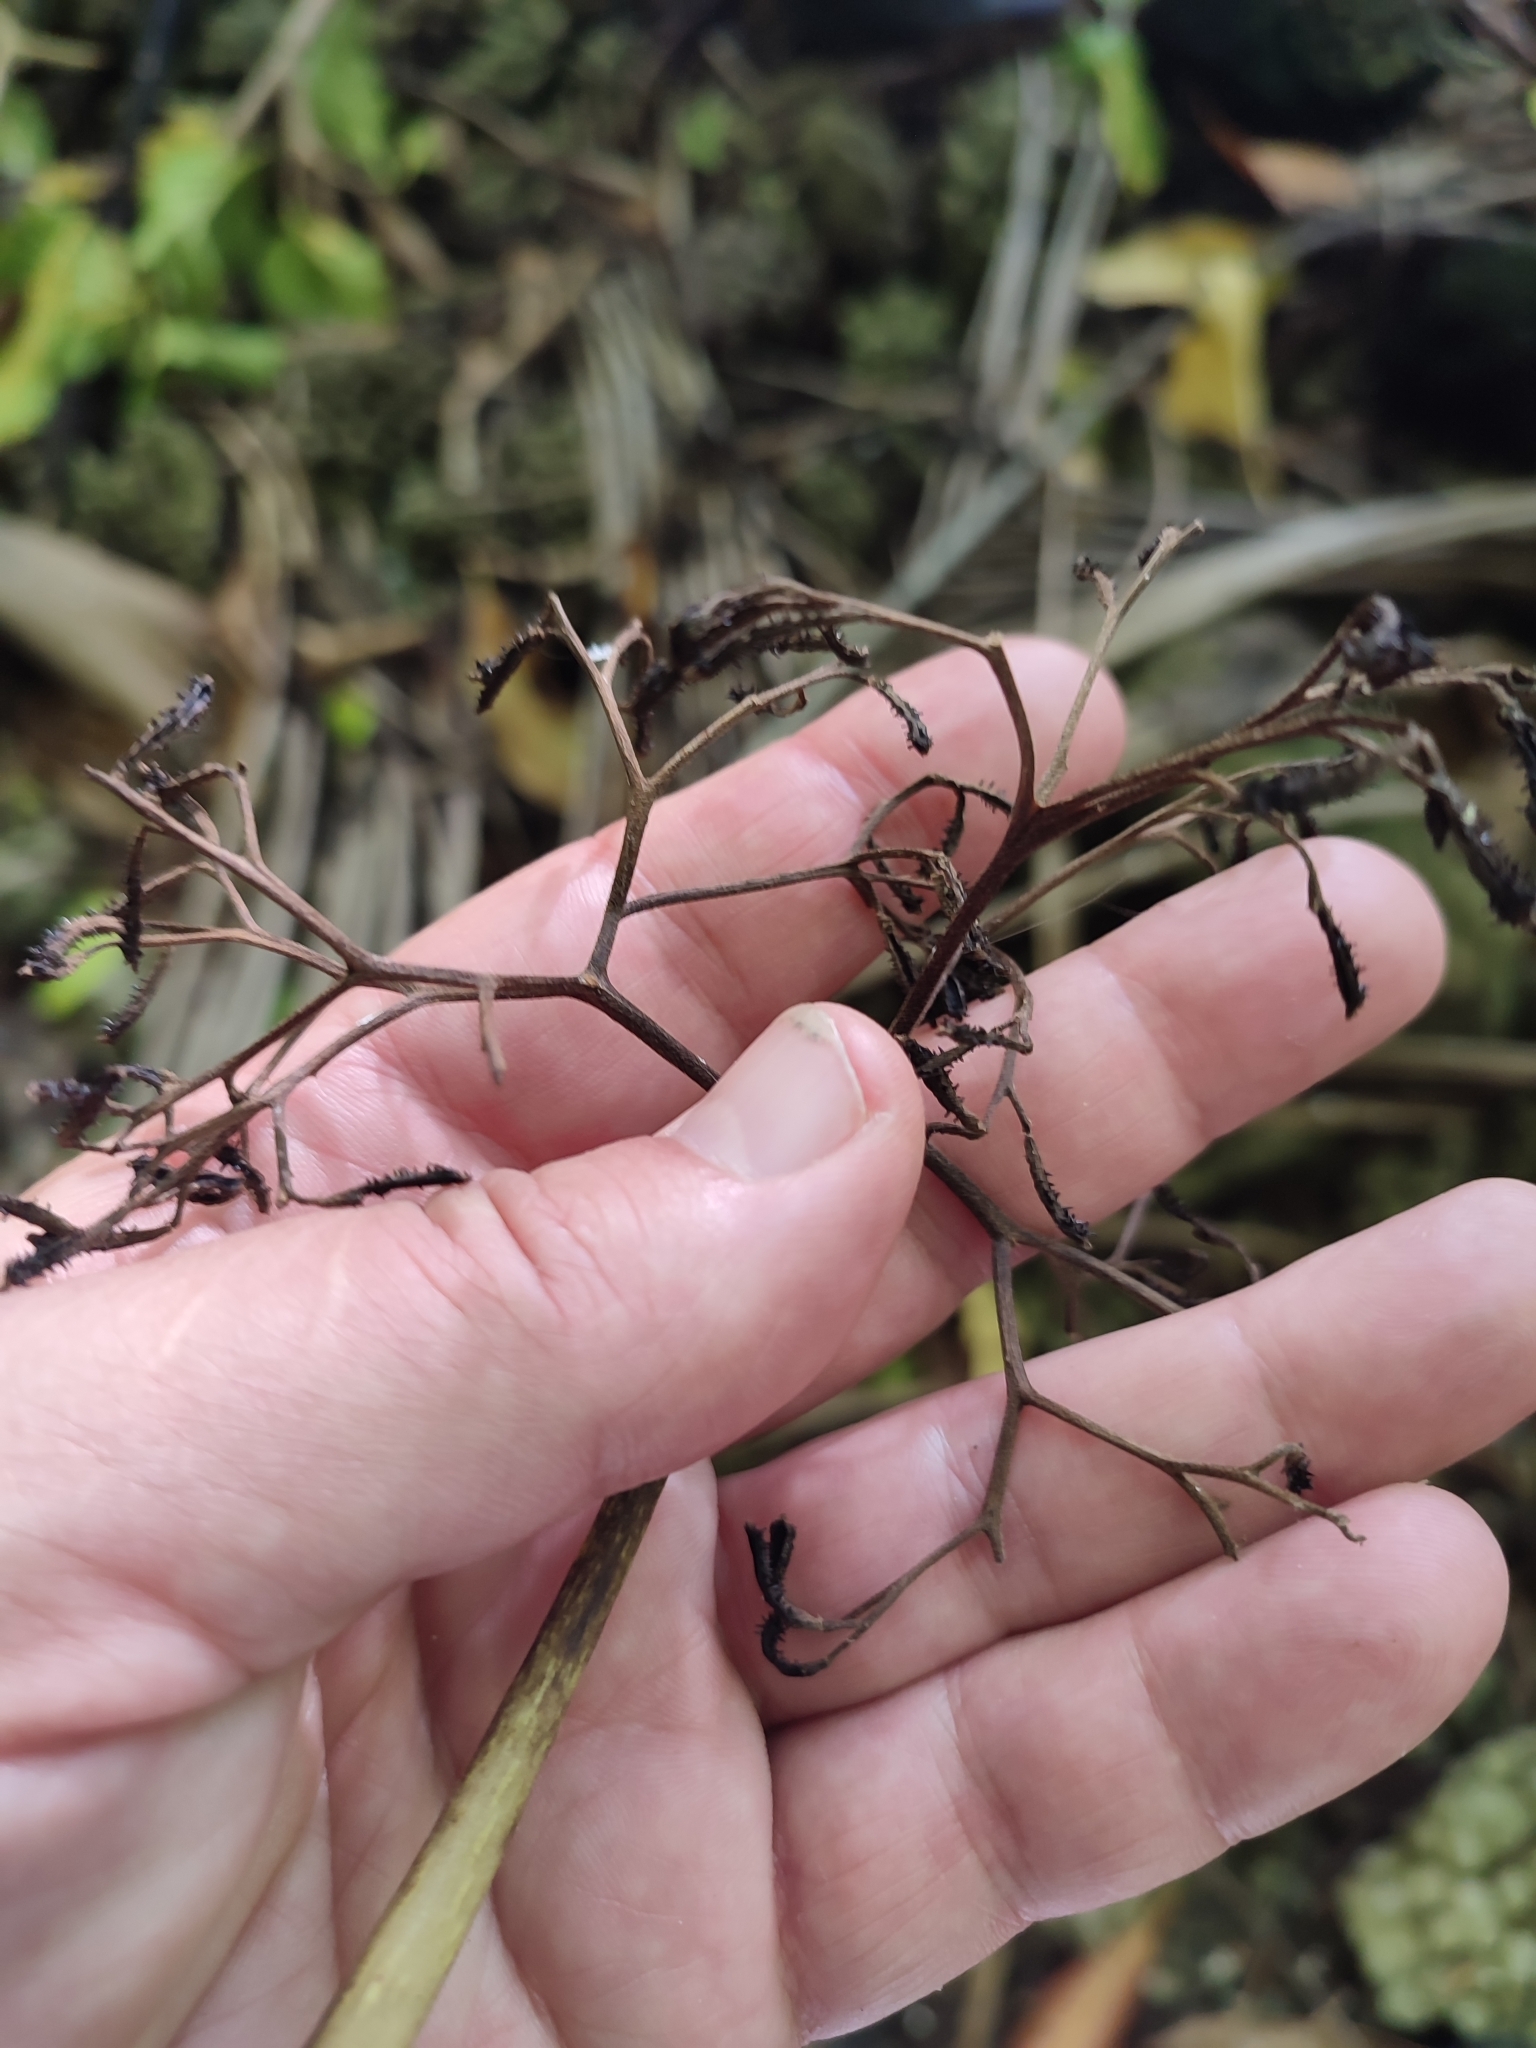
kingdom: Plantae
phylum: Tracheophyta
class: Magnoliopsida
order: Caryophyllales
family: Nyctaginaceae
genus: Ceodes
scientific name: Ceodes
